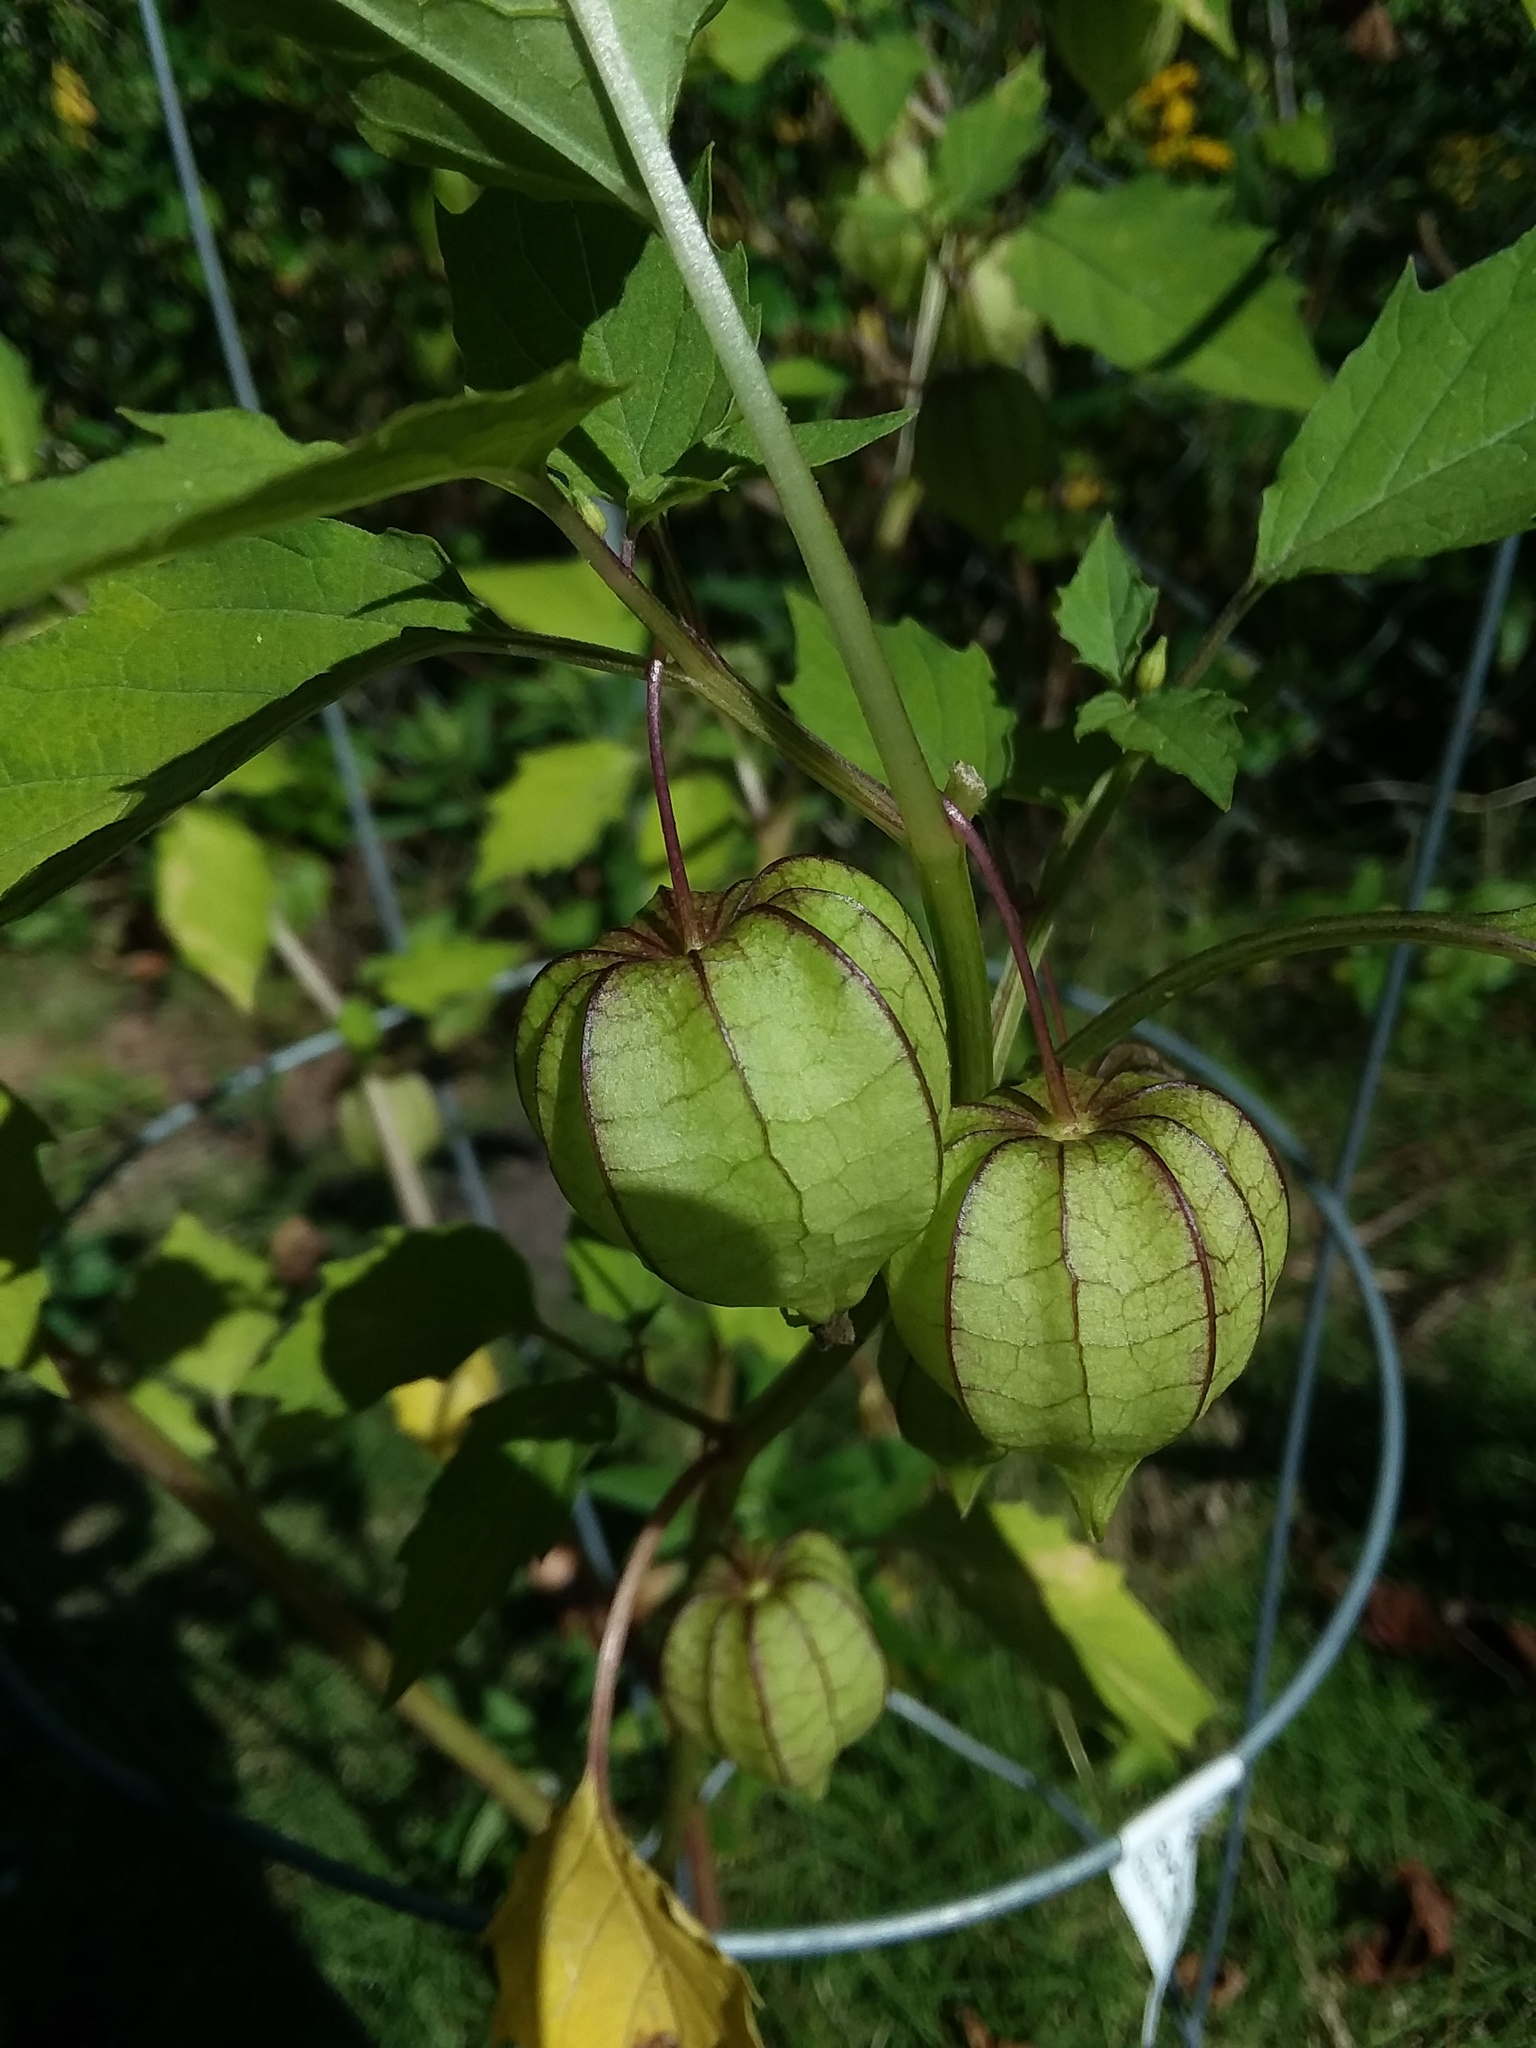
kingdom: Plantae
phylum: Tracheophyta
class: Magnoliopsida
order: Solanales
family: Solanaceae
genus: Physalis
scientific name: Physalis angulata
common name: Angular winter-cherry
